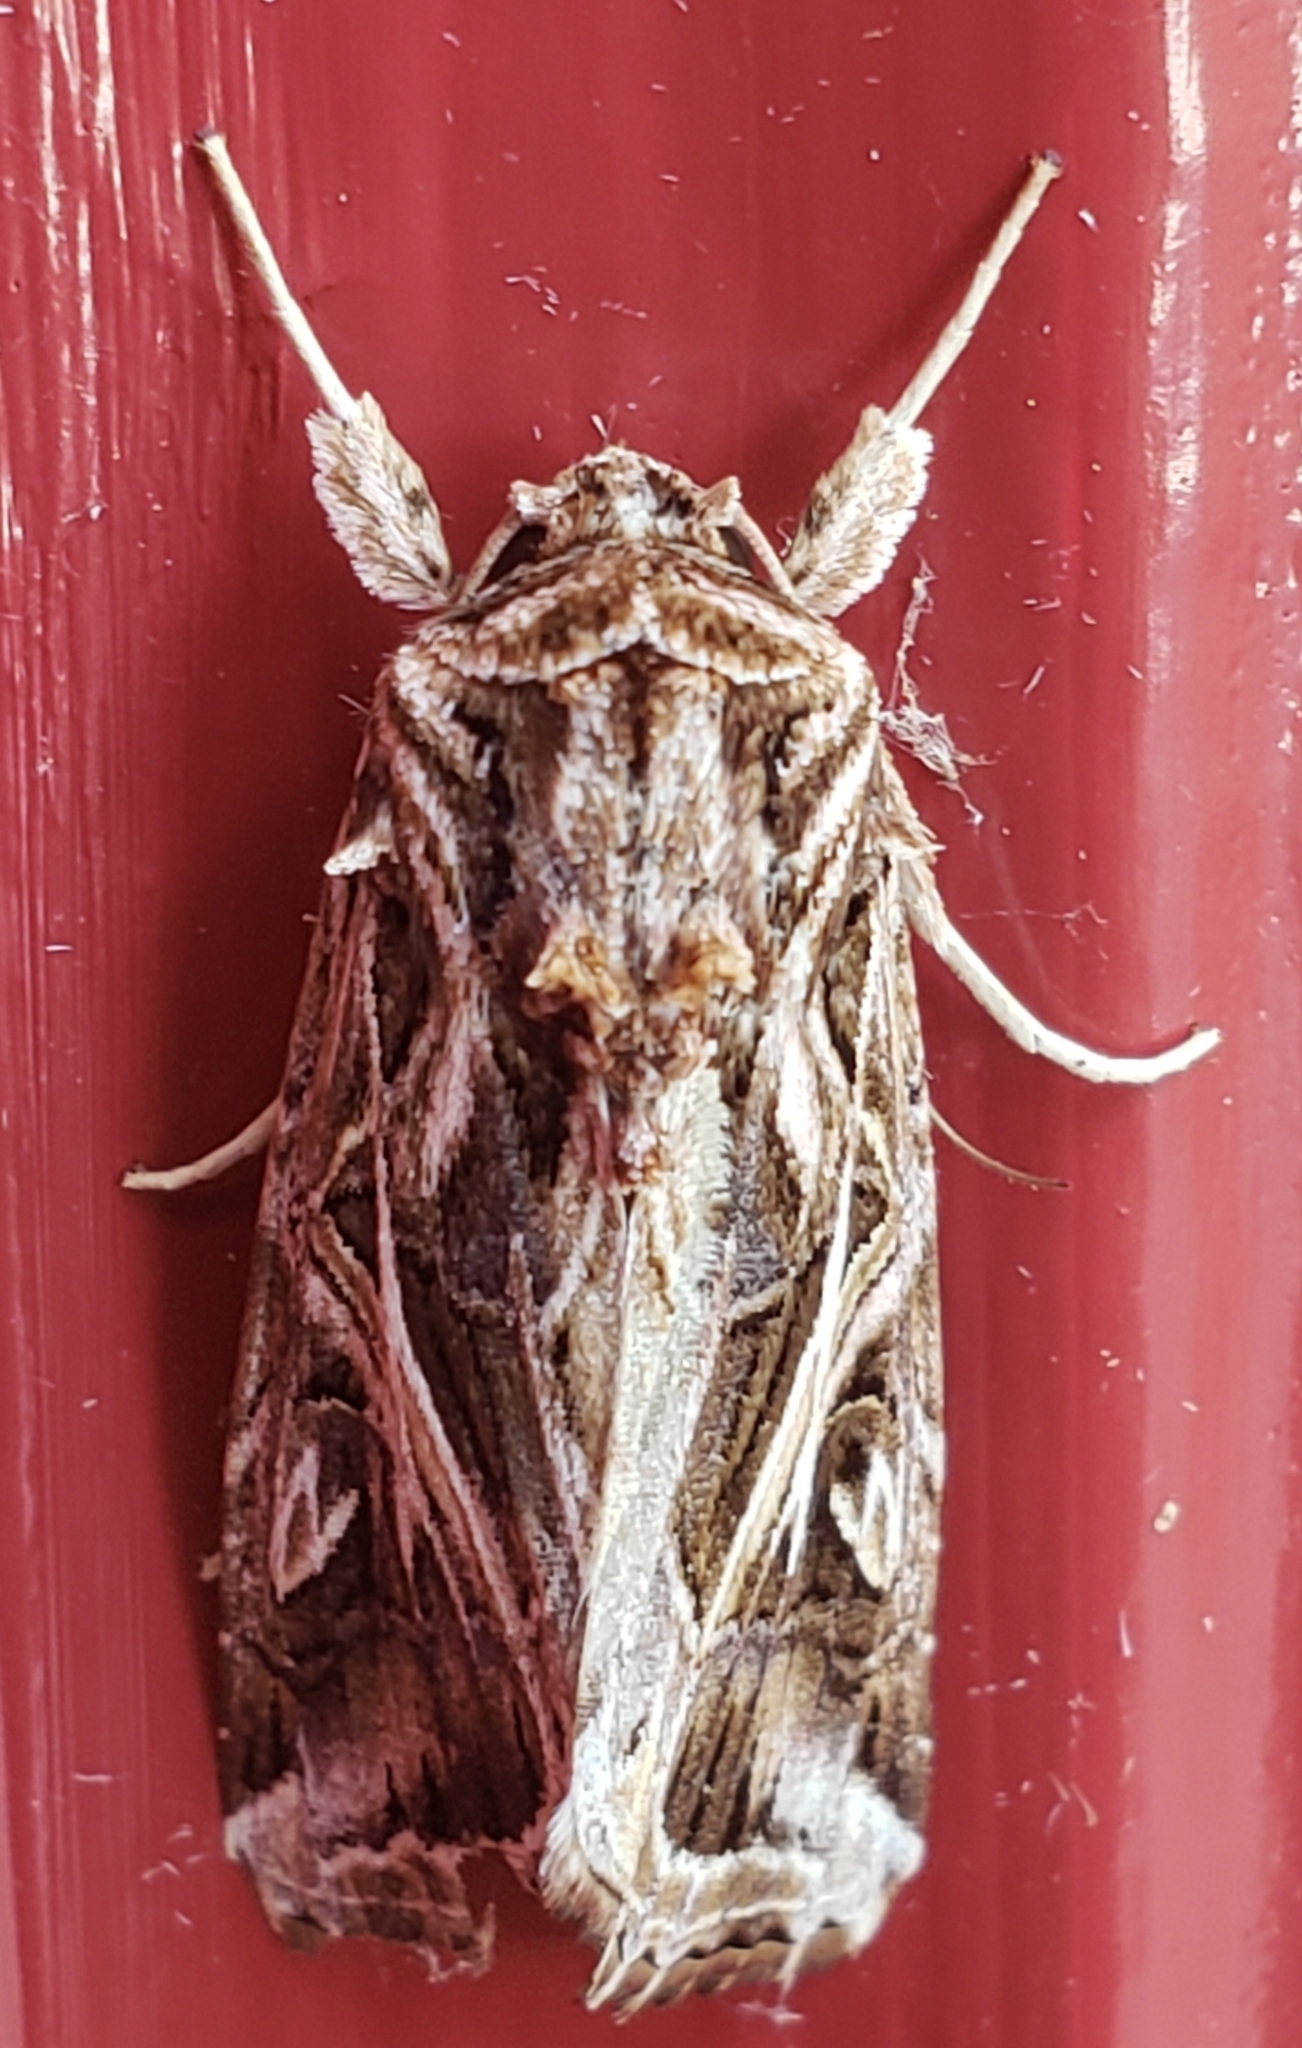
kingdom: Animalia
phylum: Arthropoda
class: Insecta
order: Lepidoptera
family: Noctuidae
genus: Spodoptera
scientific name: Spodoptera pulchella
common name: Caribbean armyworm moth
